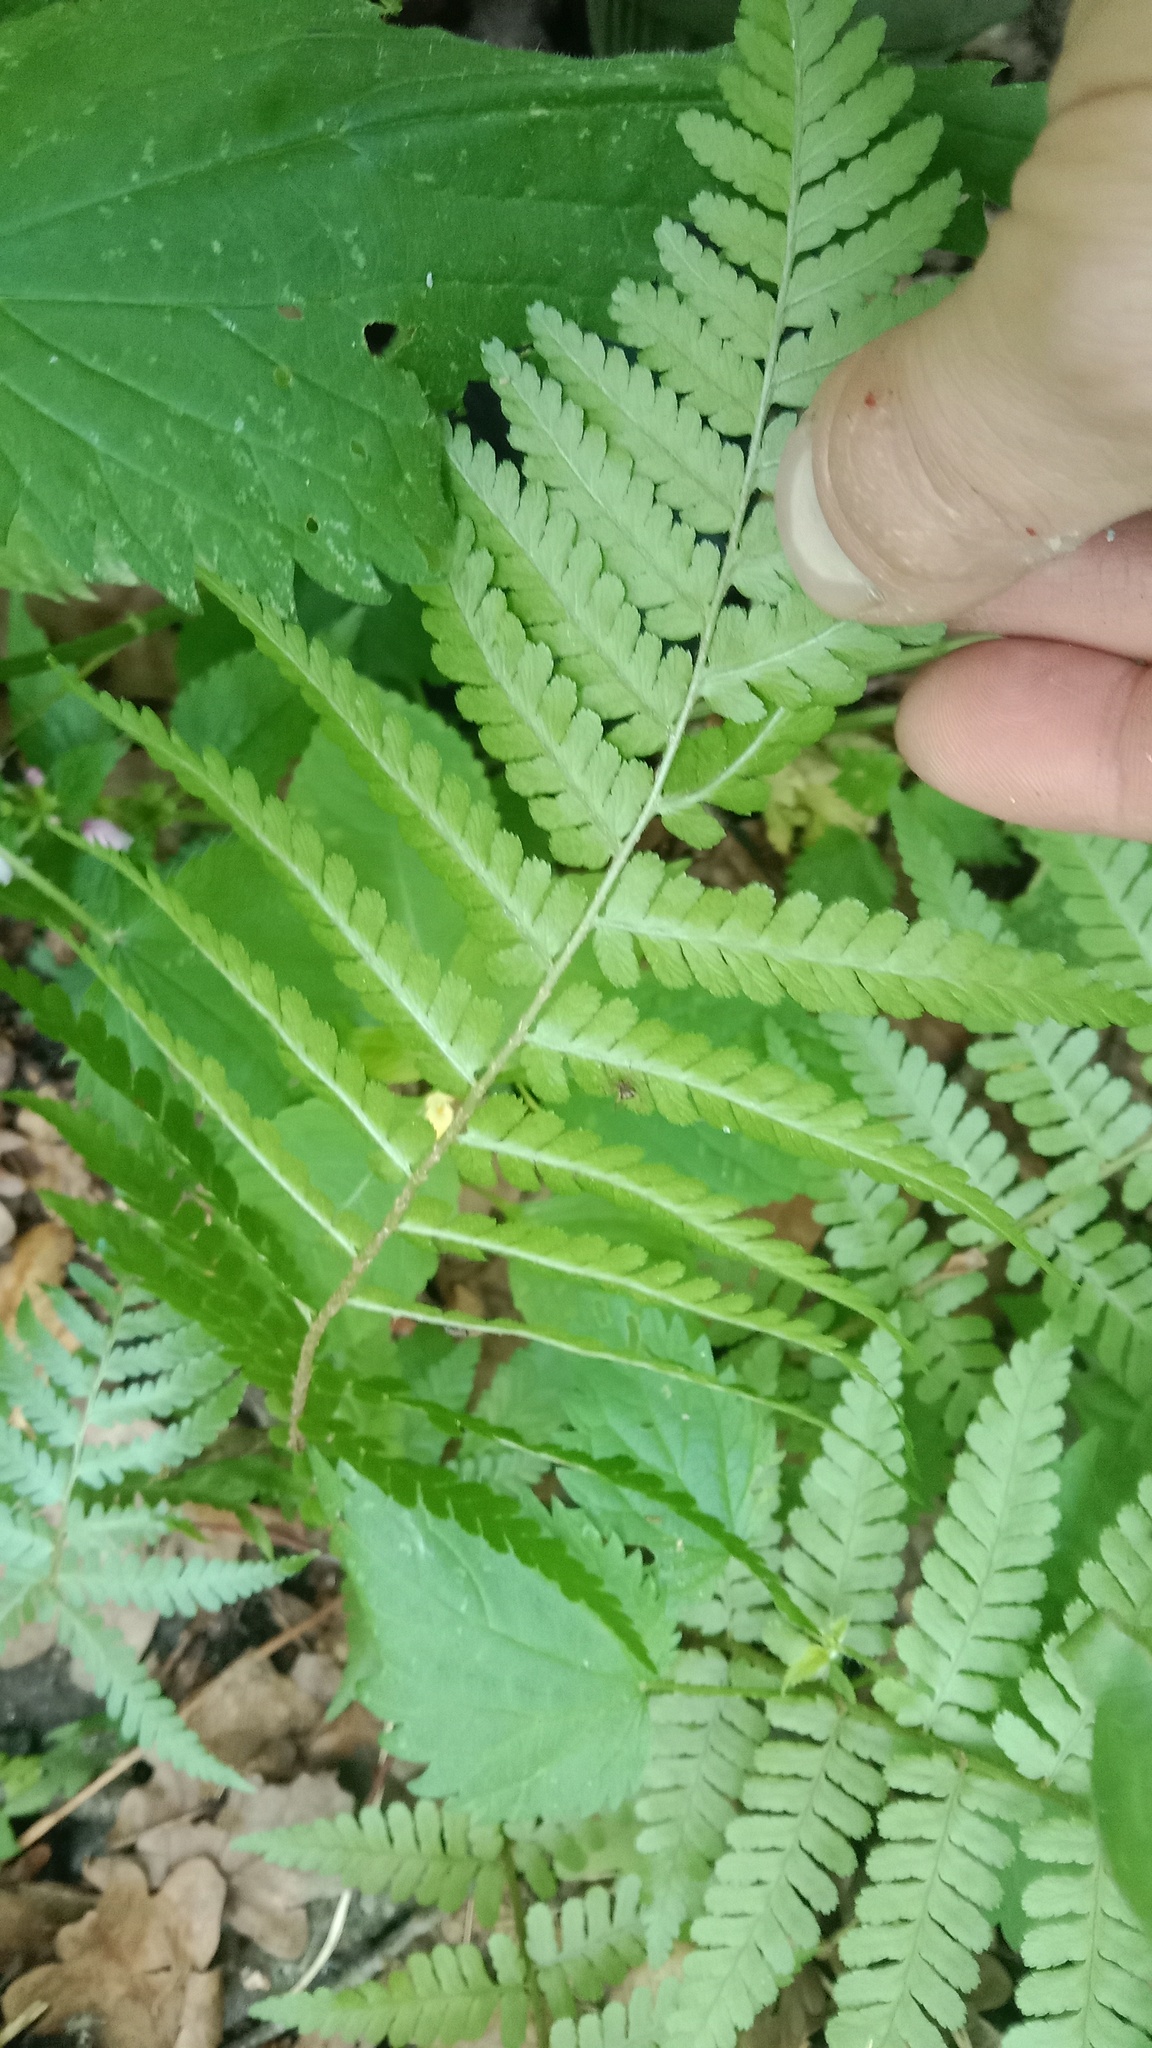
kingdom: Plantae
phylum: Tracheophyta
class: Polypodiopsida
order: Polypodiales
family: Dryopteridaceae
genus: Dryopteris
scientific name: Dryopteris filix-mas
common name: Male fern
